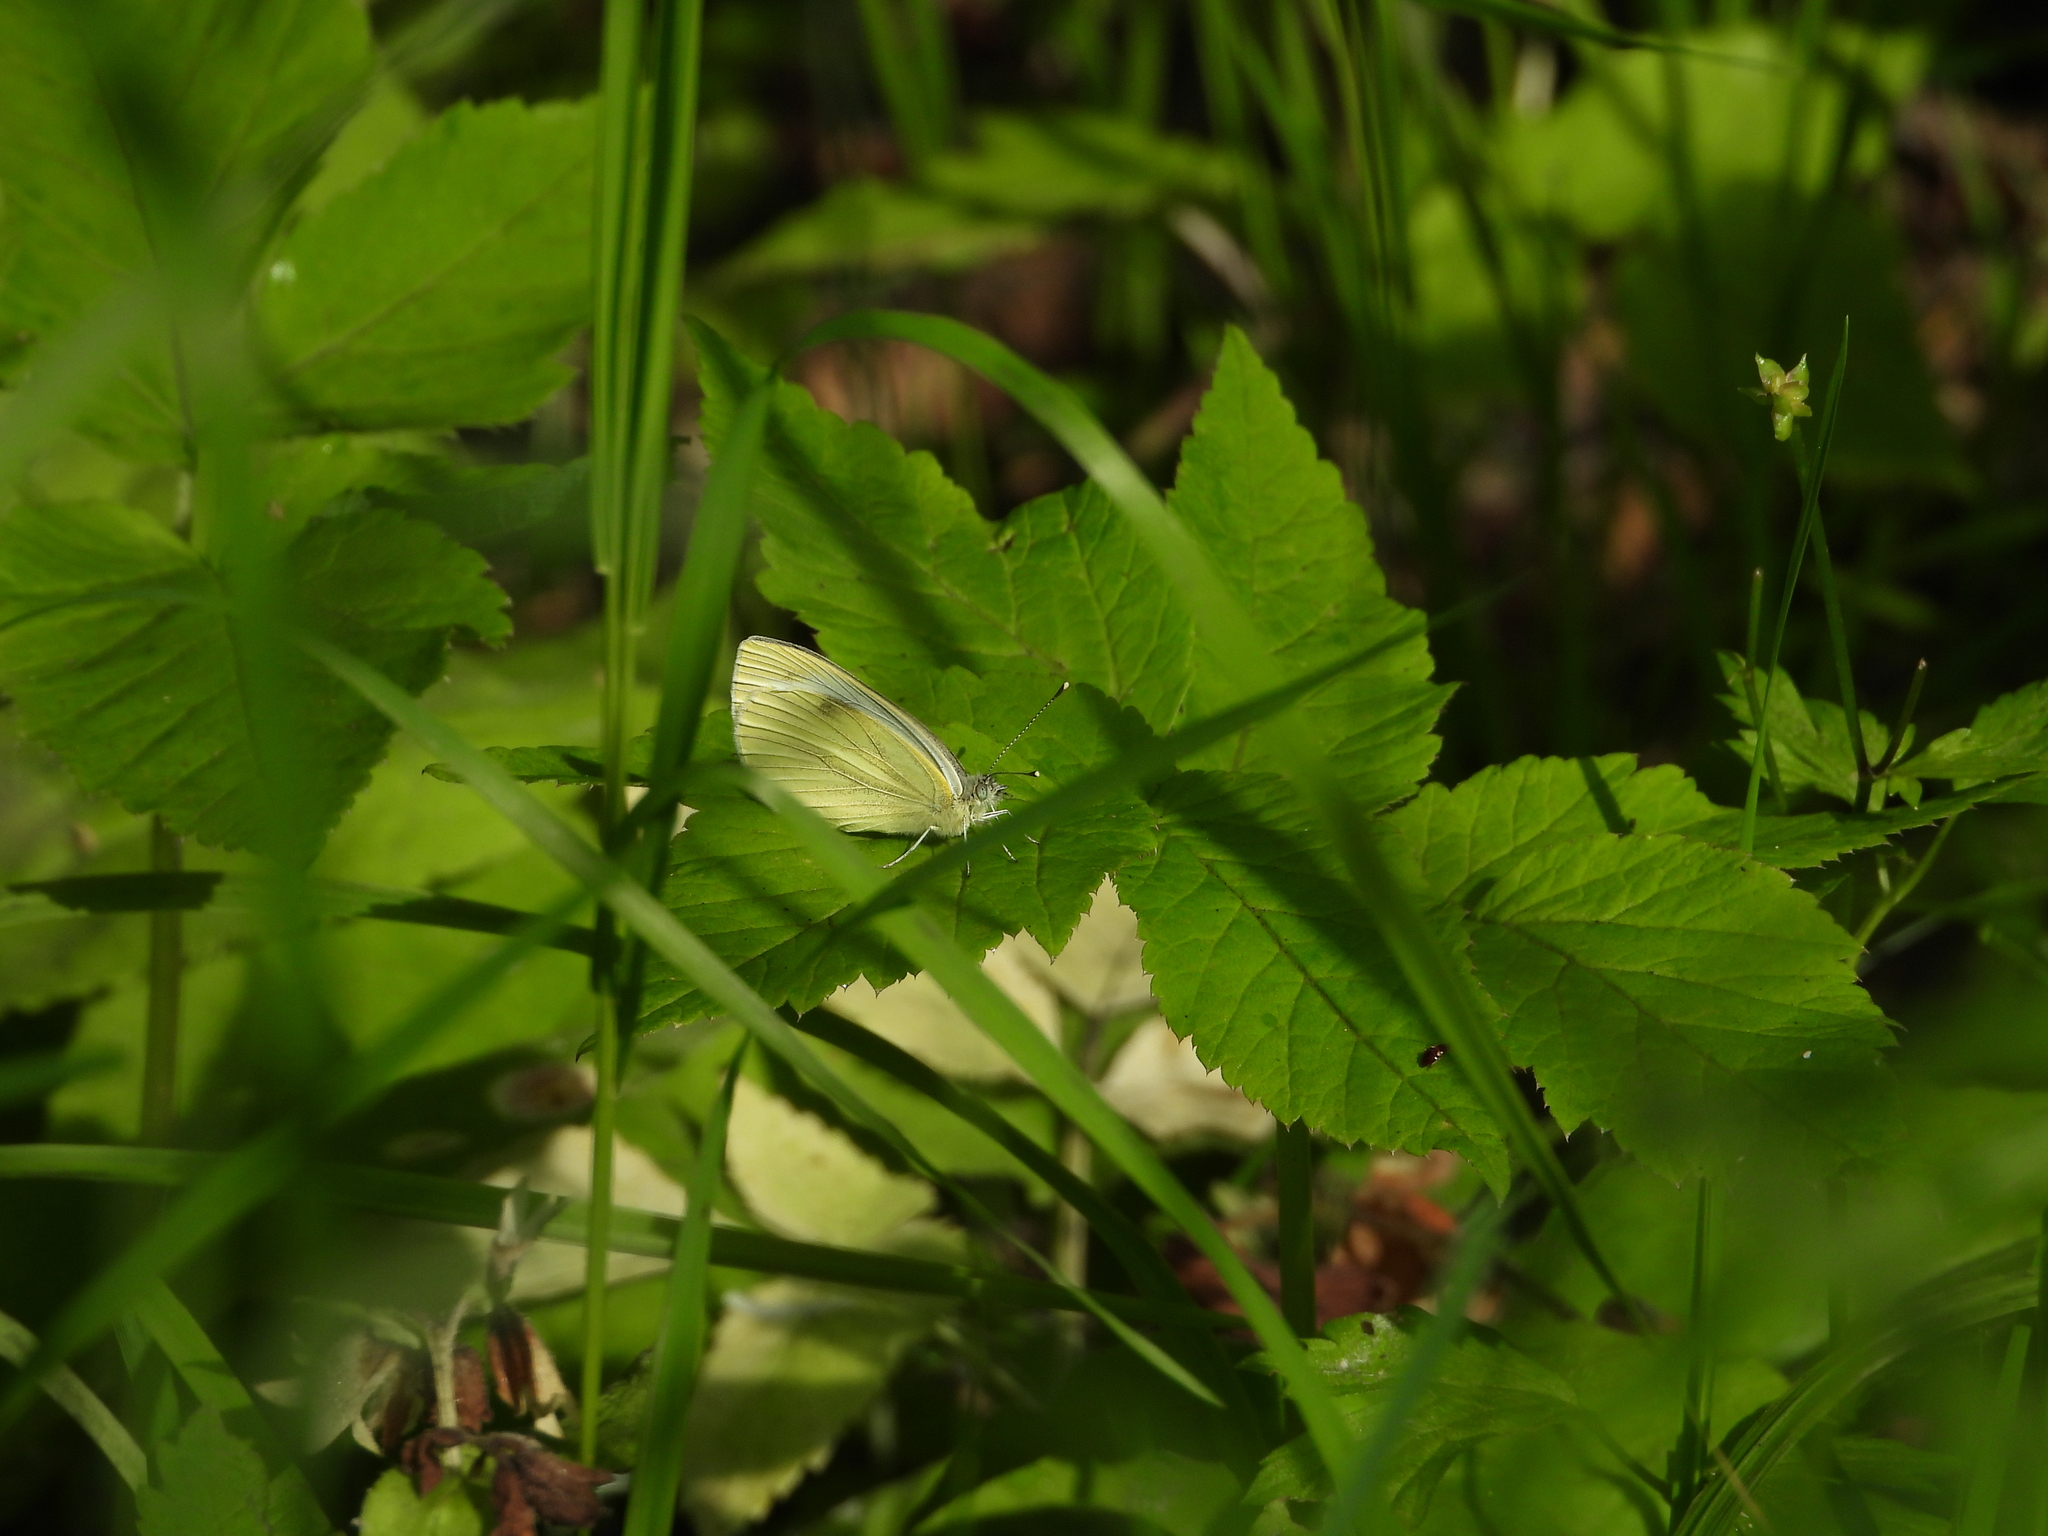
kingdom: Animalia
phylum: Arthropoda
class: Insecta
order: Lepidoptera
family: Pieridae
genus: Pieris
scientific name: Pieris napi
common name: Green-veined white
